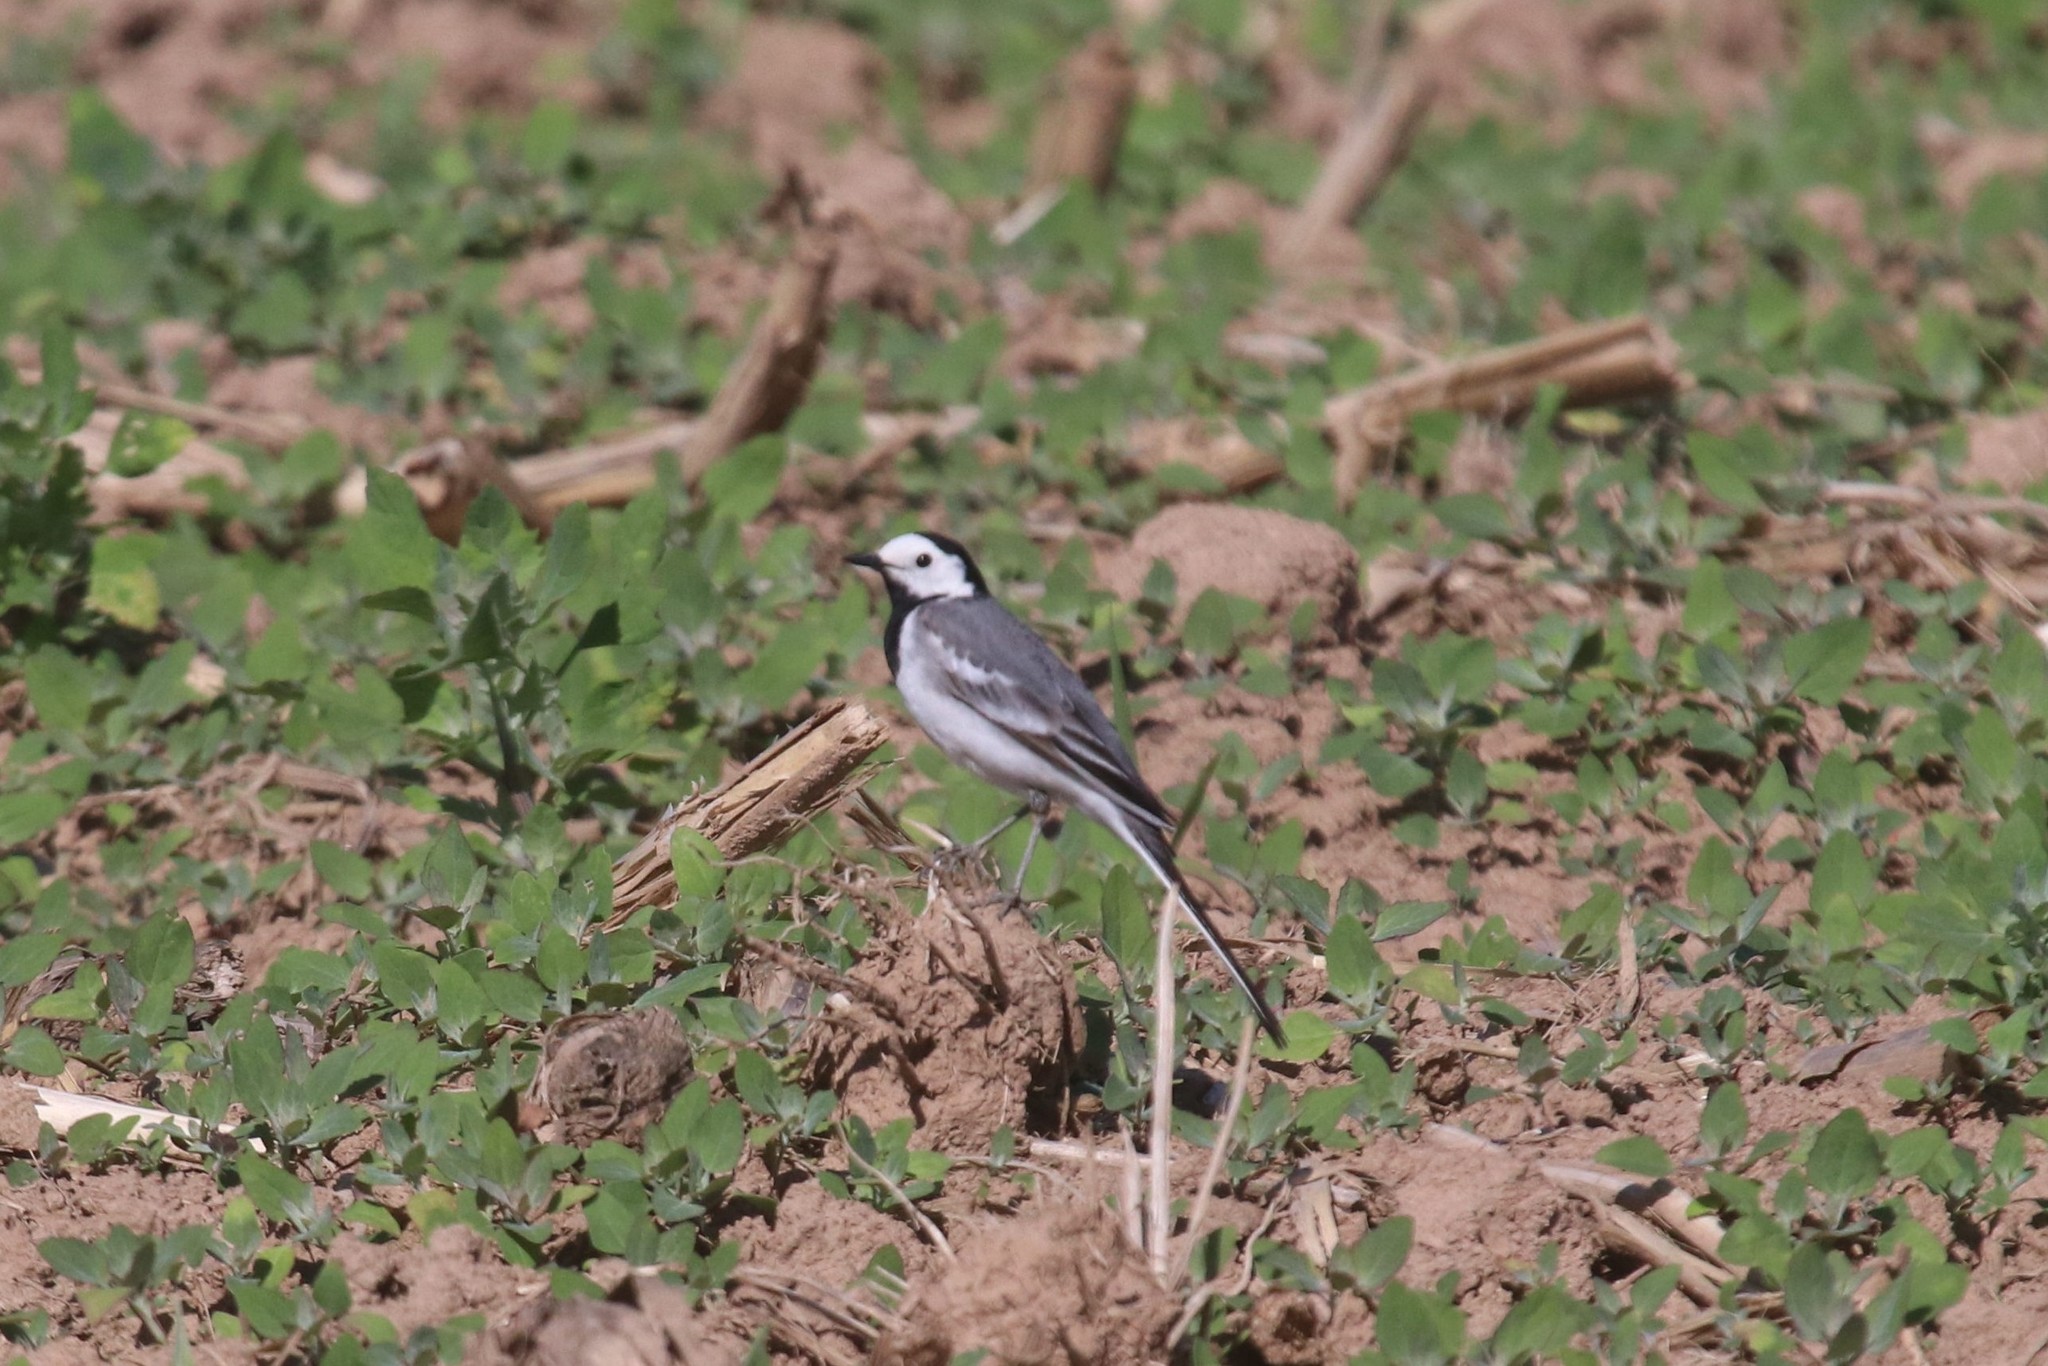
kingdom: Animalia
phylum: Chordata
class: Aves
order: Passeriformes
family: Motacillidae
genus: Motacilla
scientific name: Motacilla alba
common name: White wagtail
